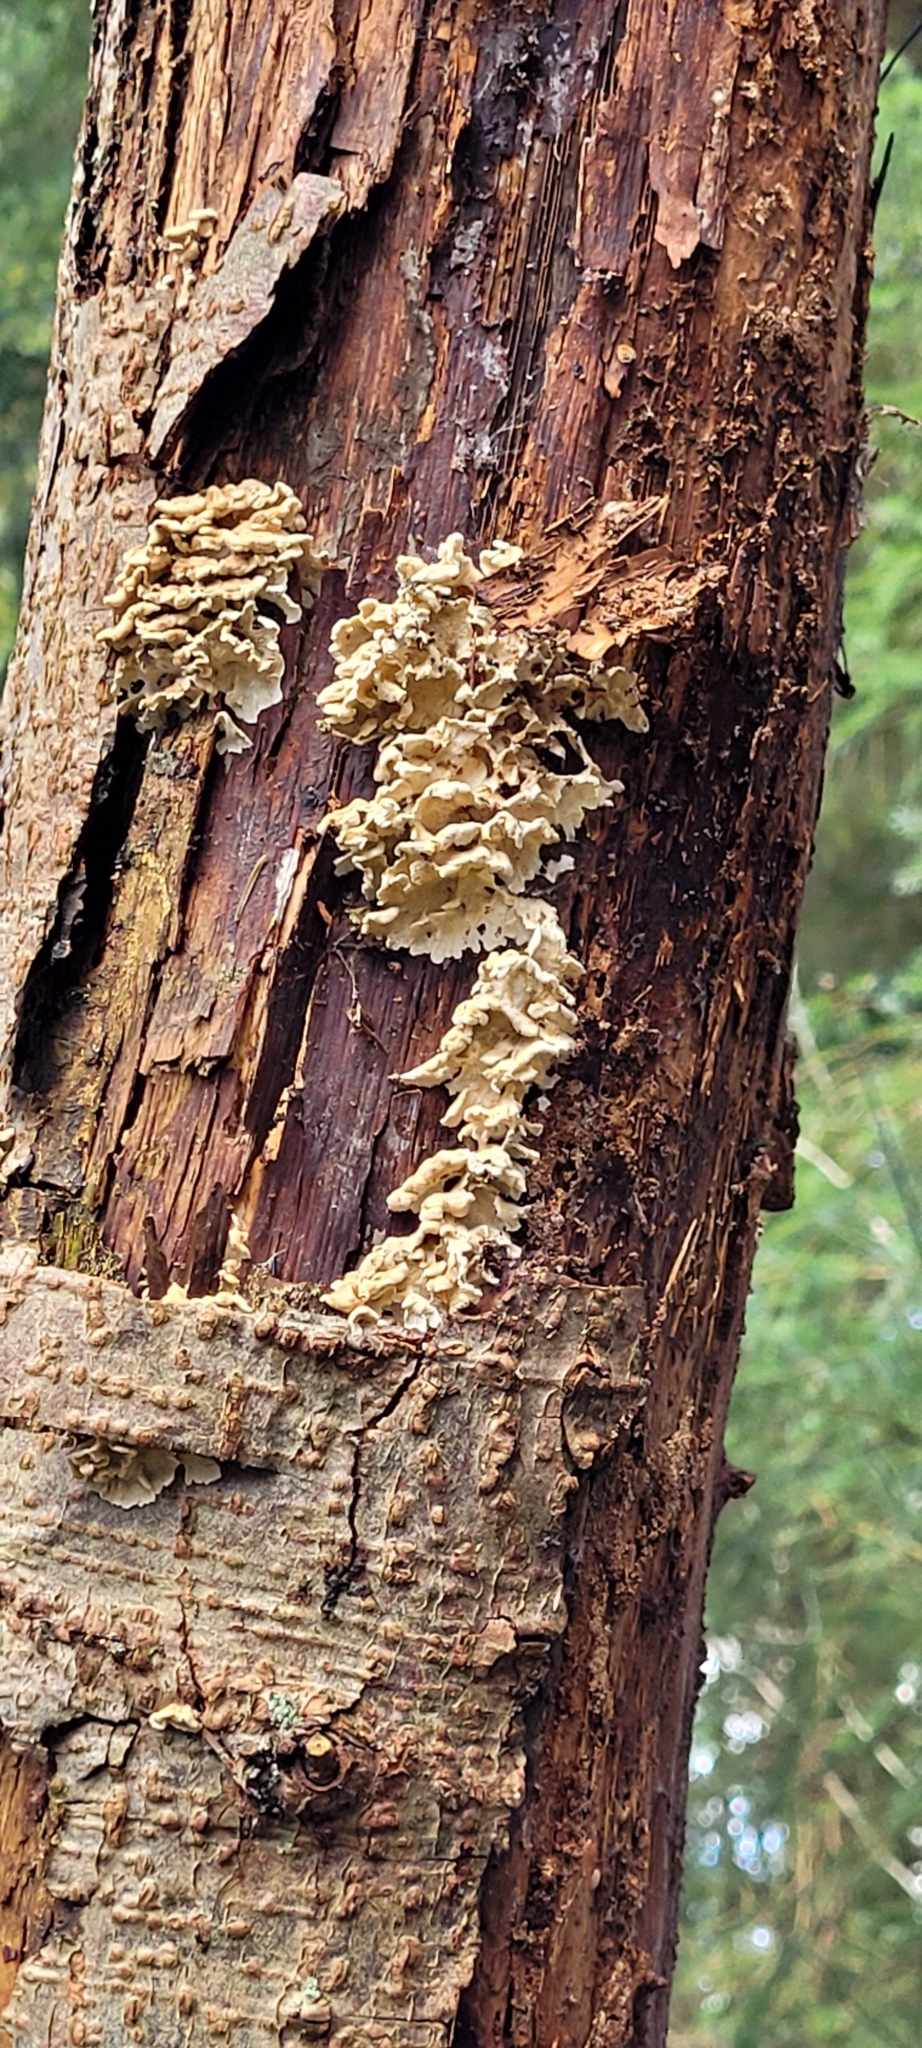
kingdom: Fungi
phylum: Basidiomycota
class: Agaricomycetes
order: Amylocorticiales
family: Amylocorticiaceae
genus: Plicaturopsis
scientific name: Plicaturopsis crispa
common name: Crimped gill
